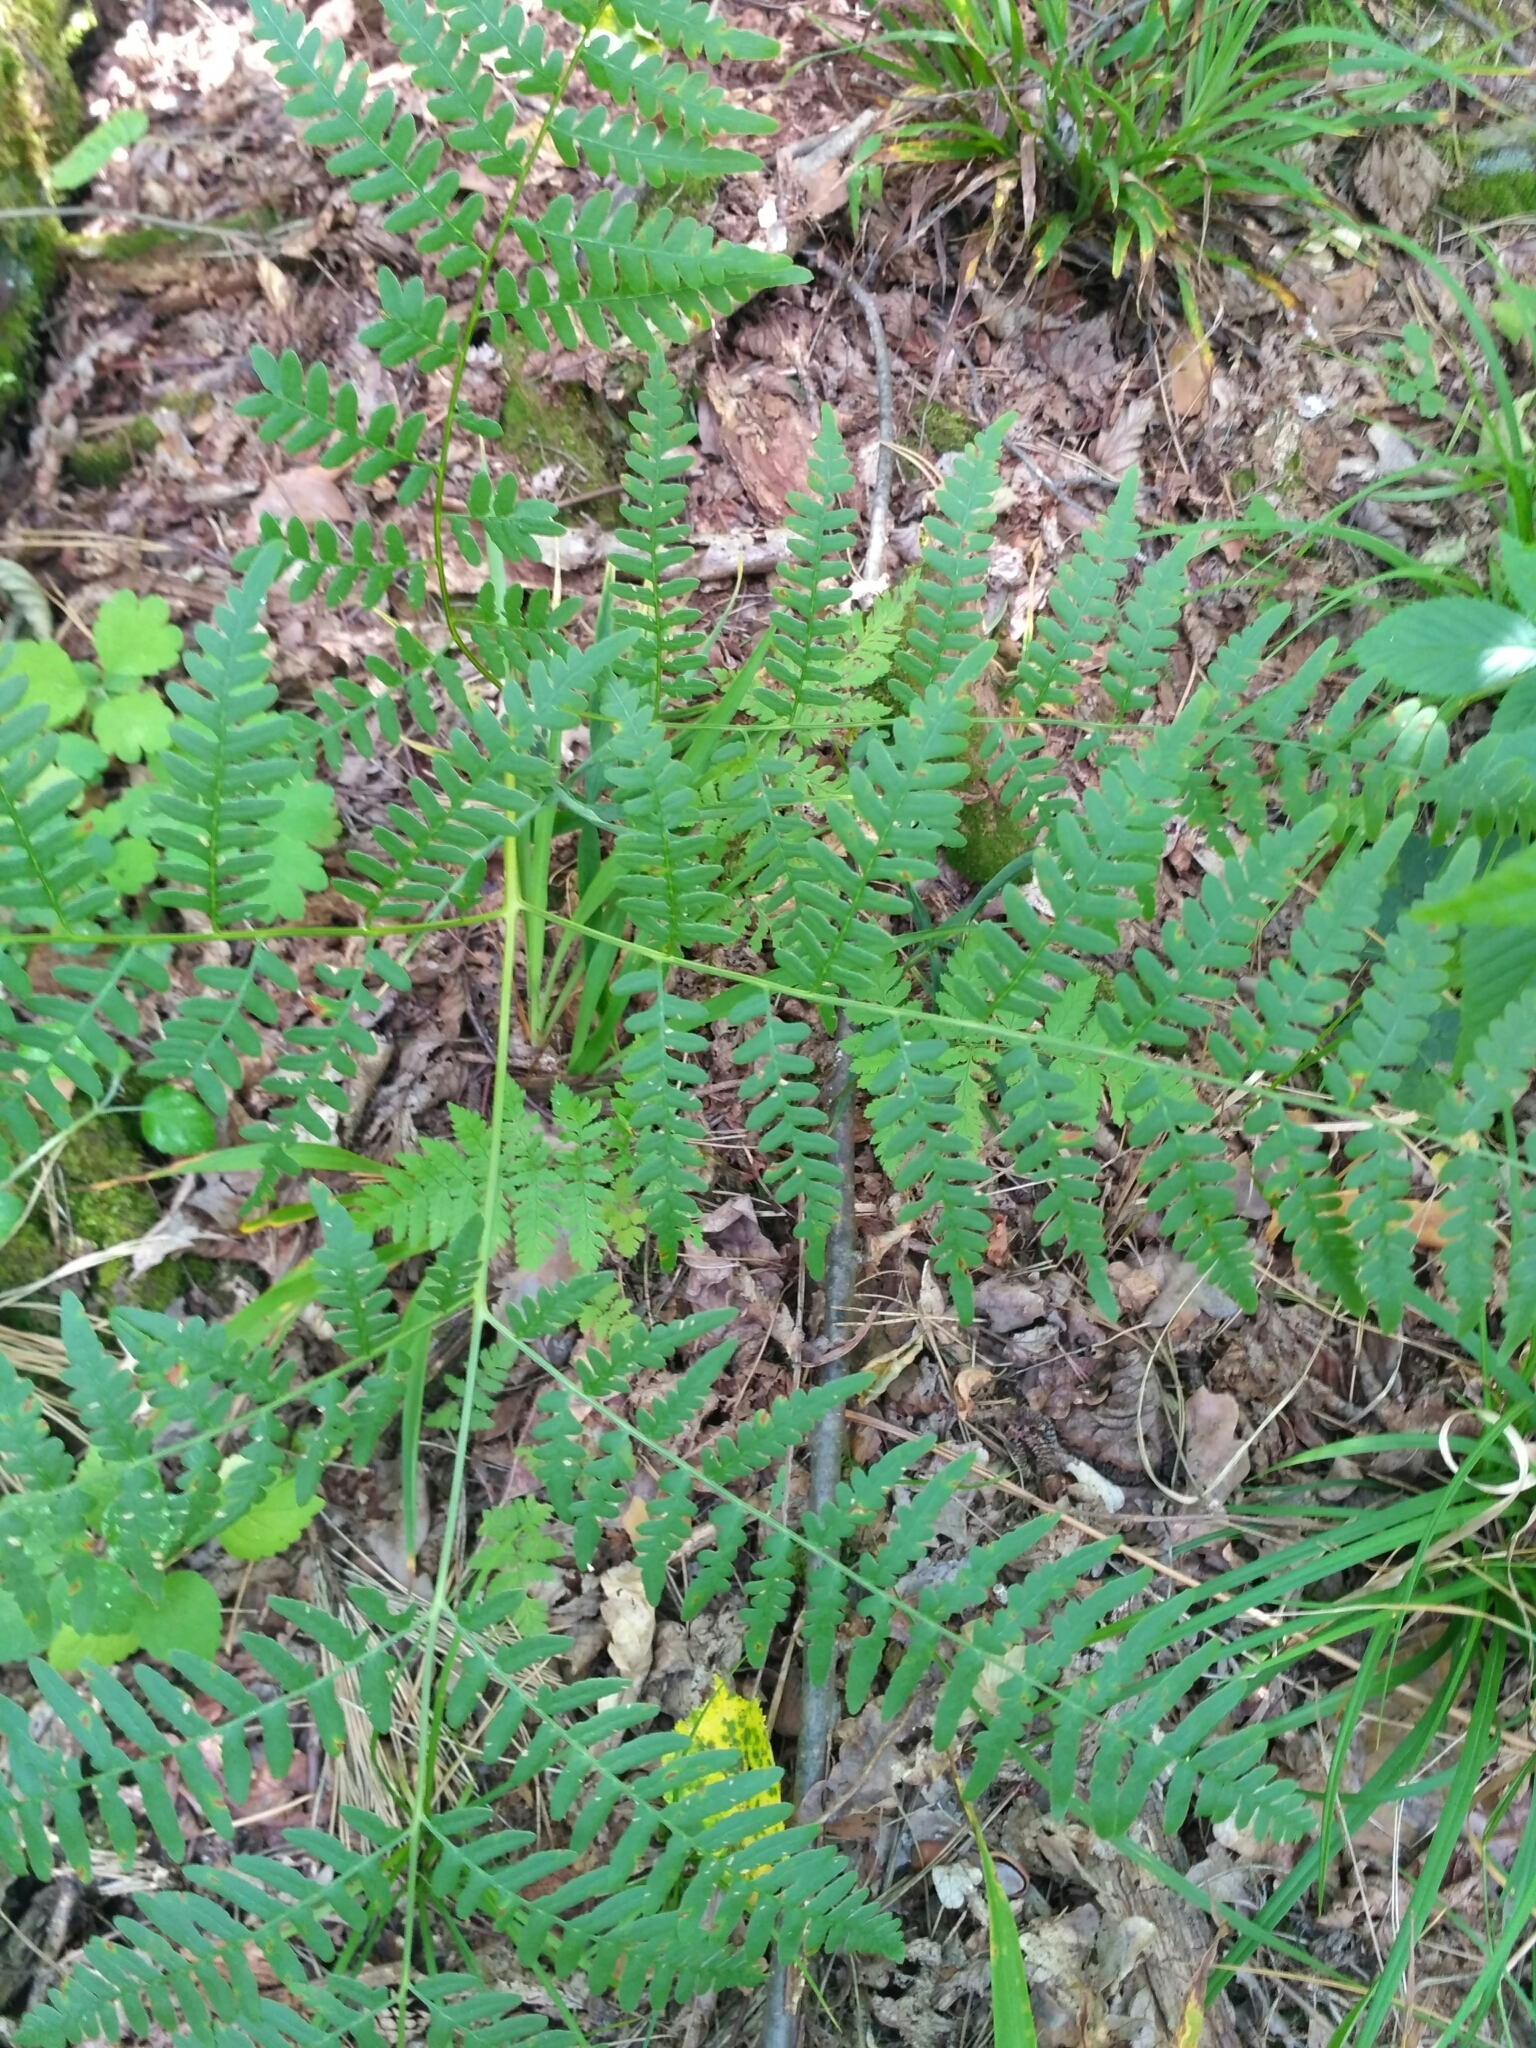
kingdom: Plantae
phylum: Tracheophyta
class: Polypodiopsida
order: Polypodiales
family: Dennstaedtiaceae
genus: Pteridium
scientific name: Pteridium aquilinum
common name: Bracken
